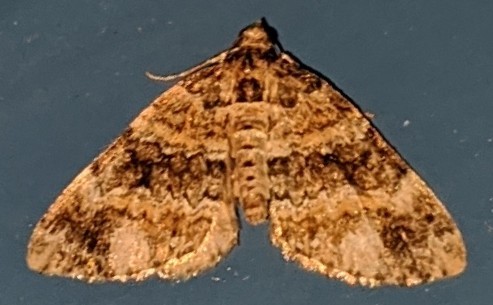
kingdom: Animalia
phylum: Arthropoda
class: Insecta
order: Lepidoptera
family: Geometridae
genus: Martania
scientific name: Martania
